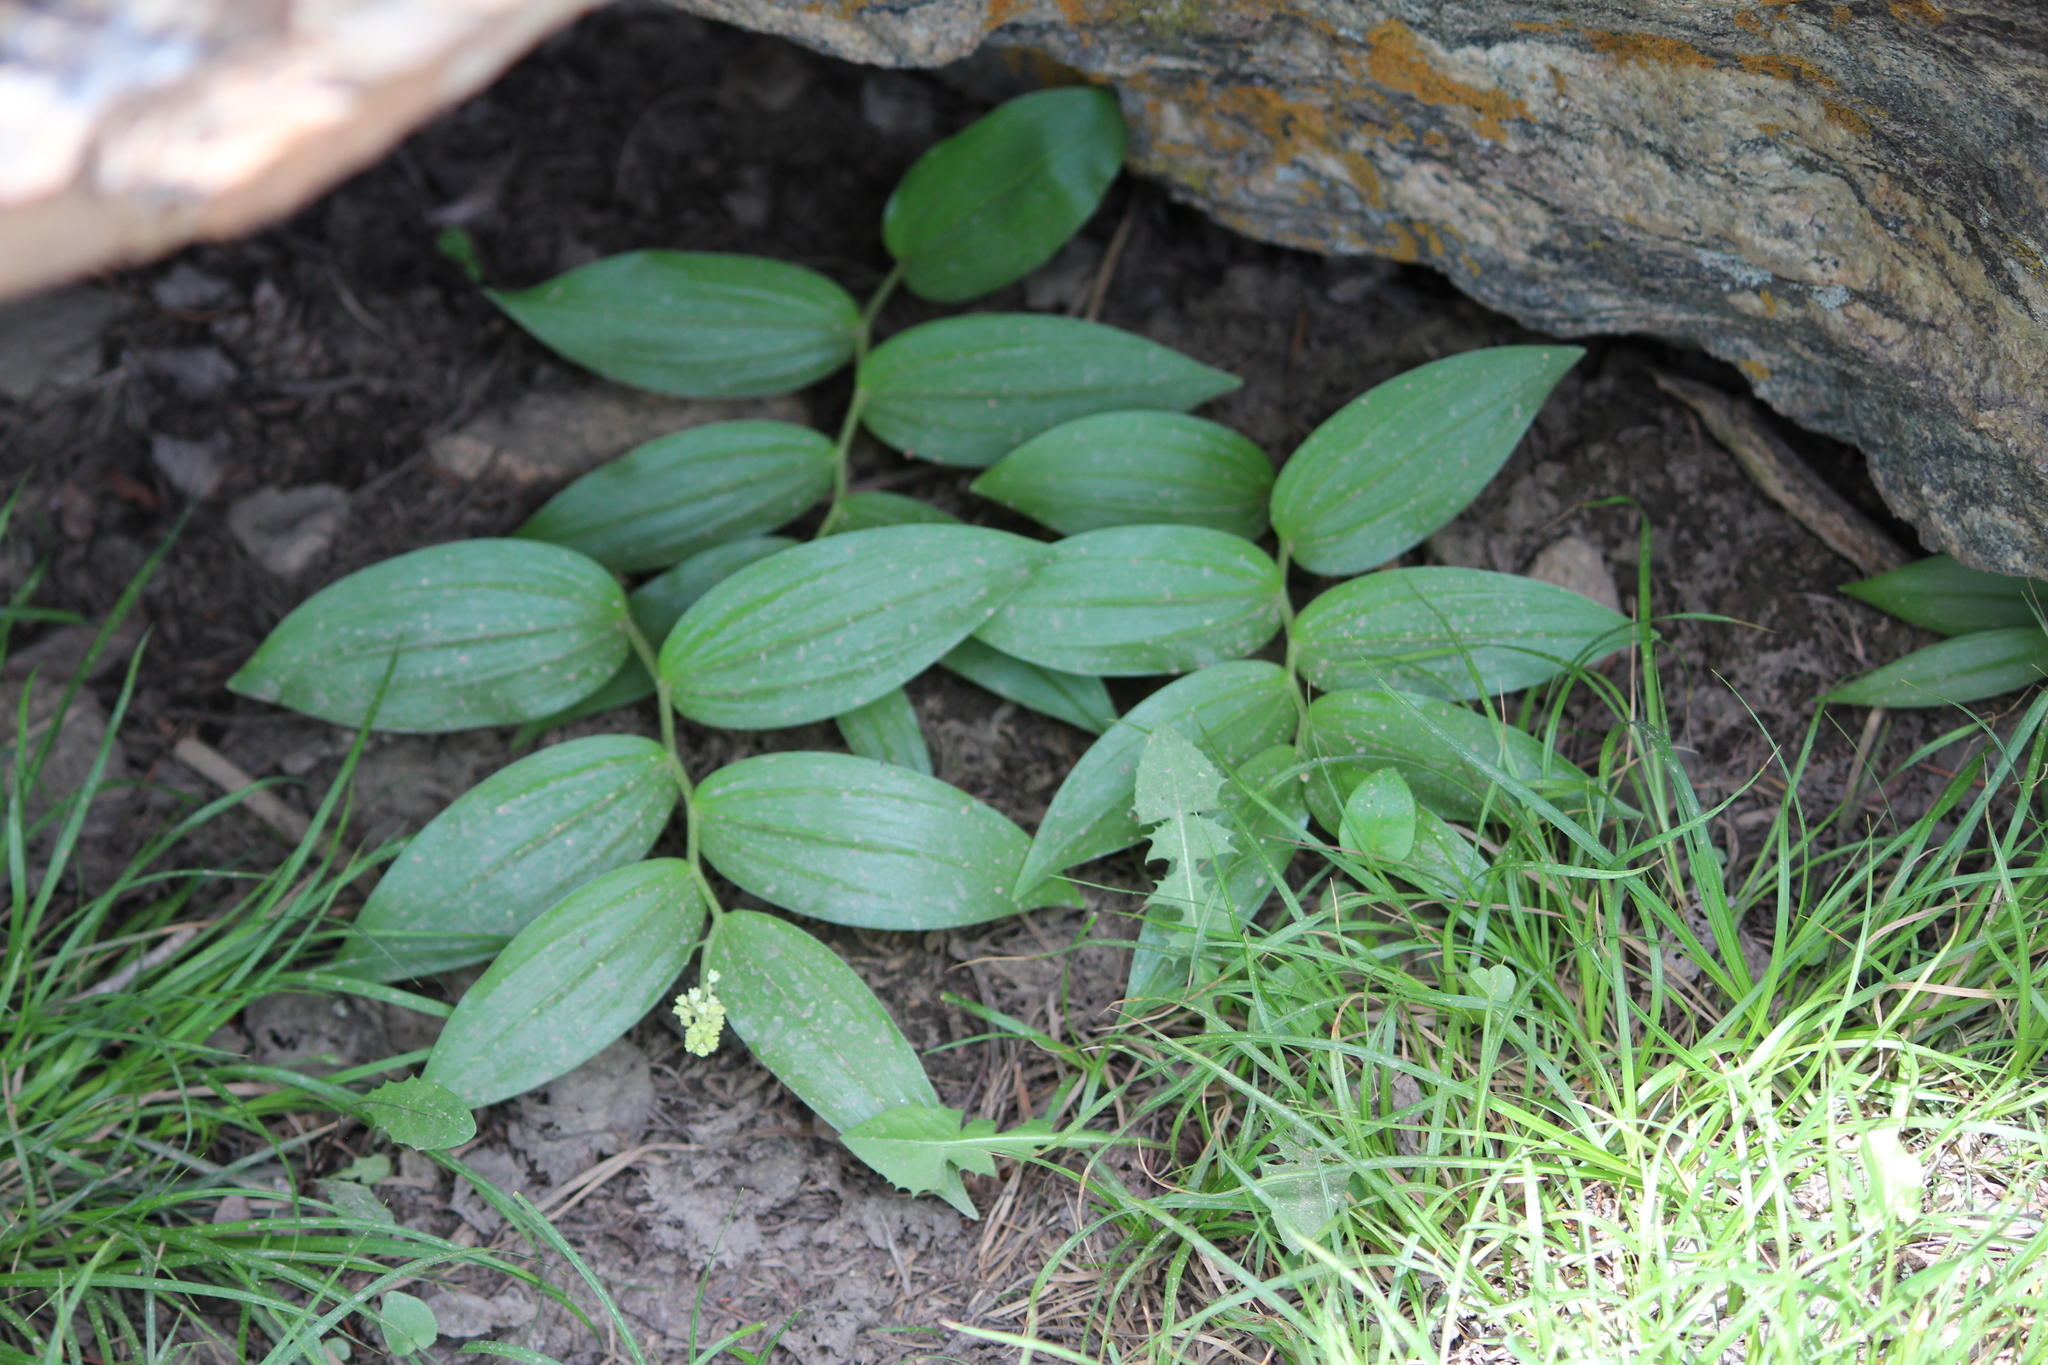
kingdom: Plantae
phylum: Tracheophyta
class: Liliopsida
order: Asparagales
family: Asparagaceae
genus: Maianthemum
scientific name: Maianthemum racemosum
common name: False spikenard
